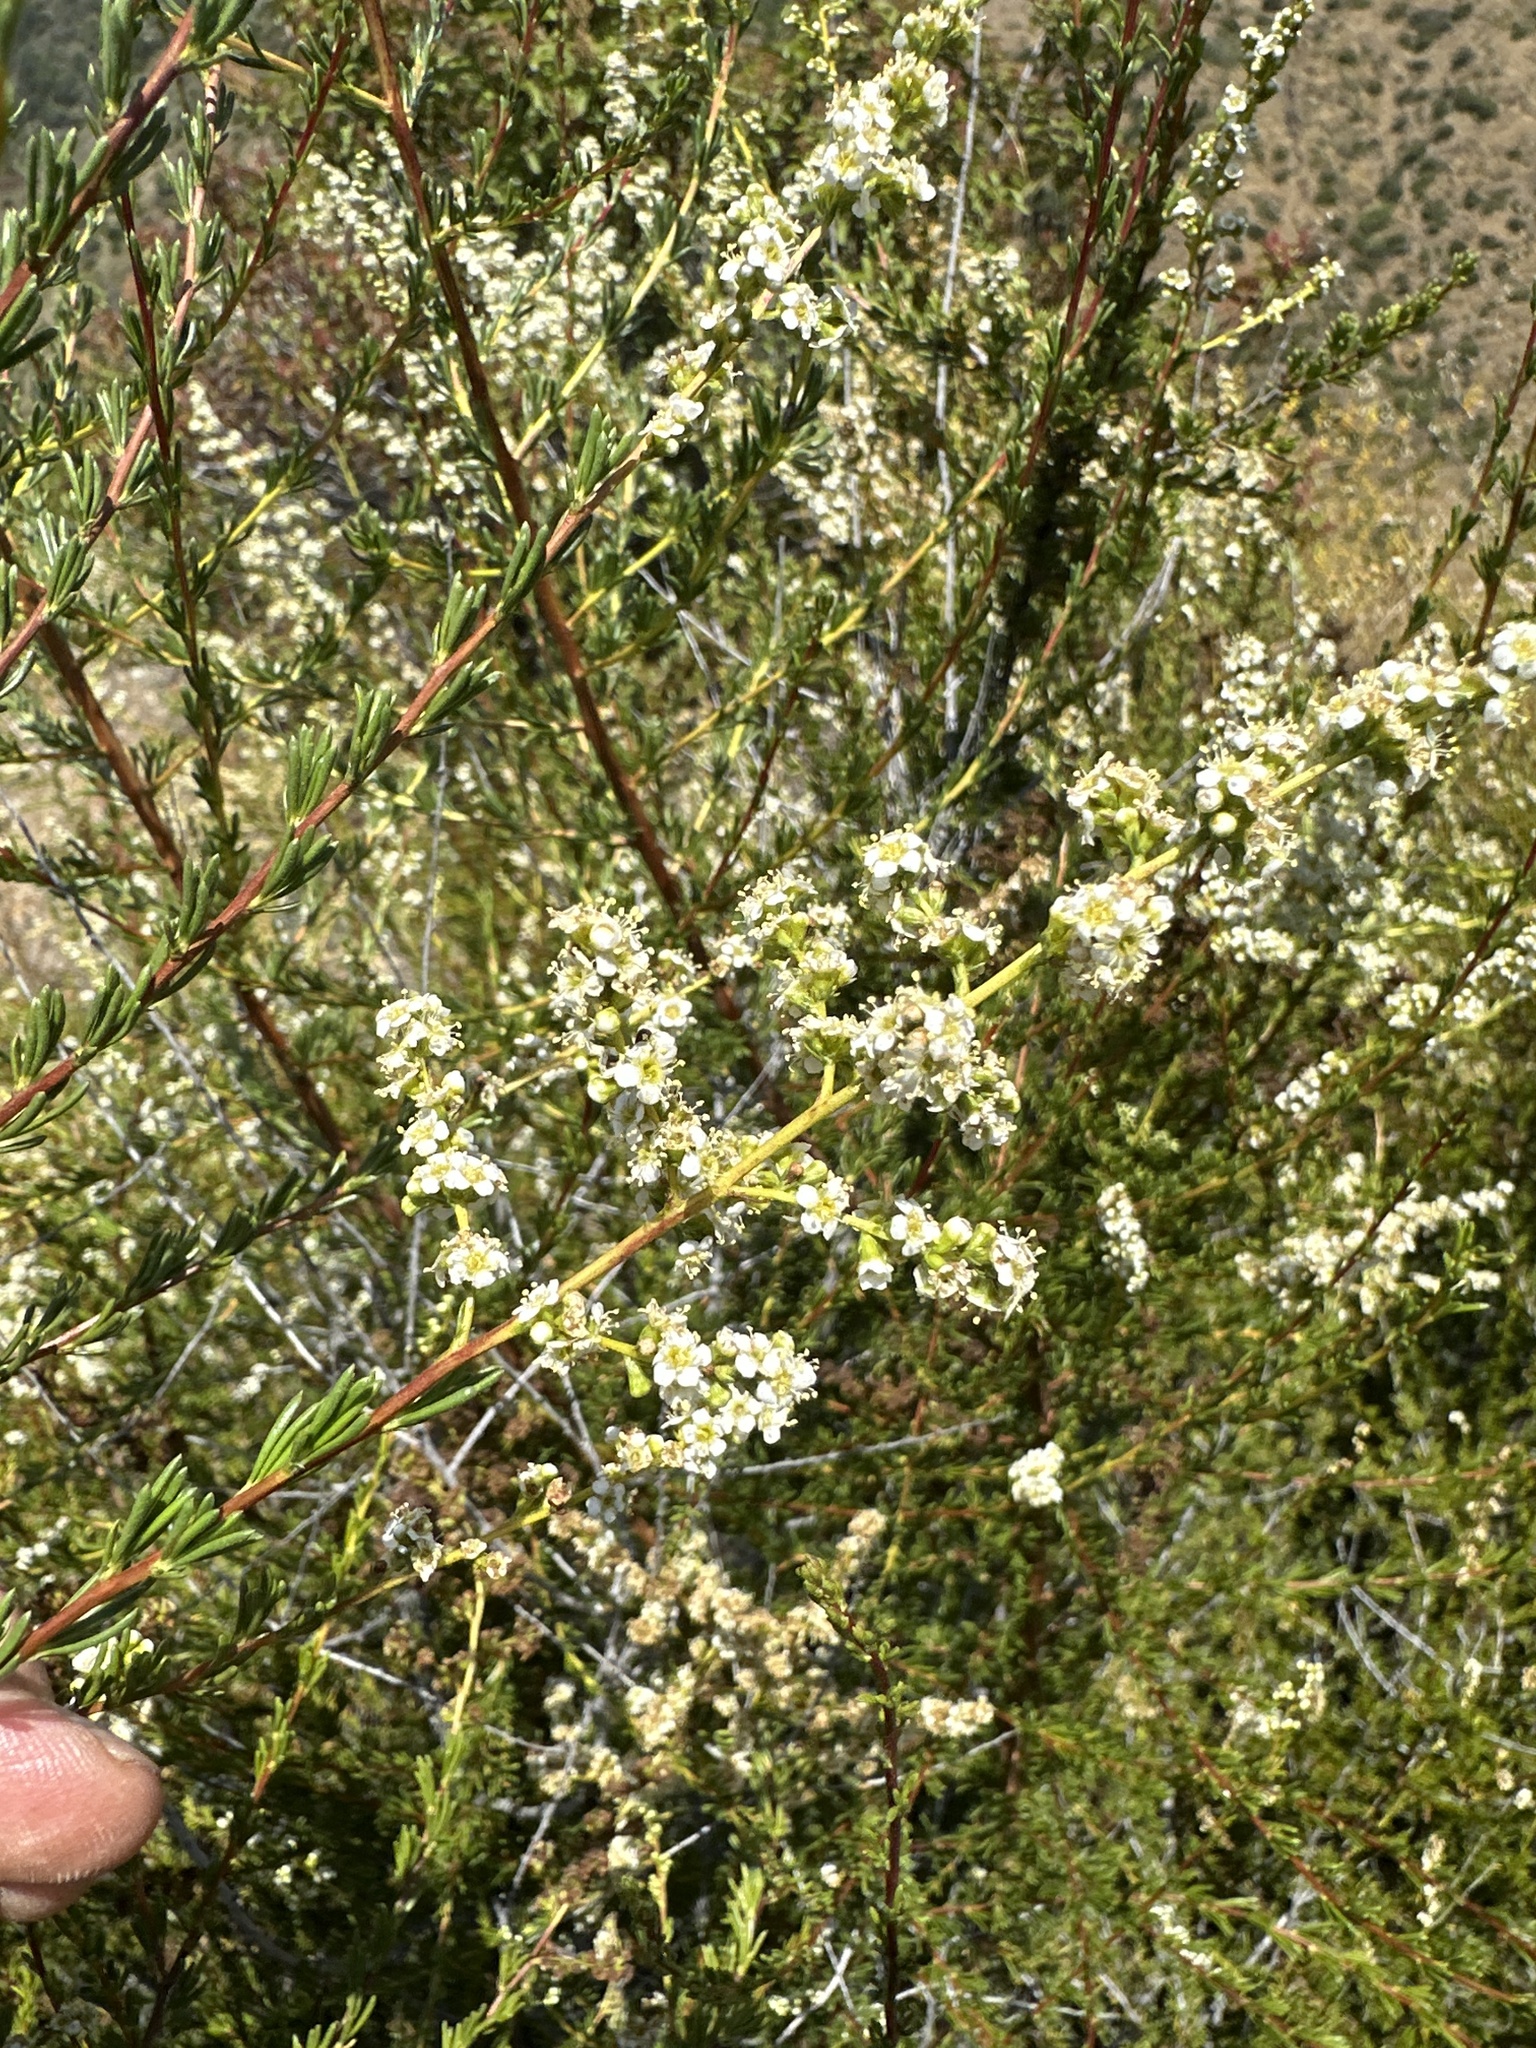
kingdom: Plantae
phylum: Tracheophyta
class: Magnoliopsida
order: Rosales
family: Rosaceae
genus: Adenostoma
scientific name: Adenostoma fasciculatum
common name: Chamise
